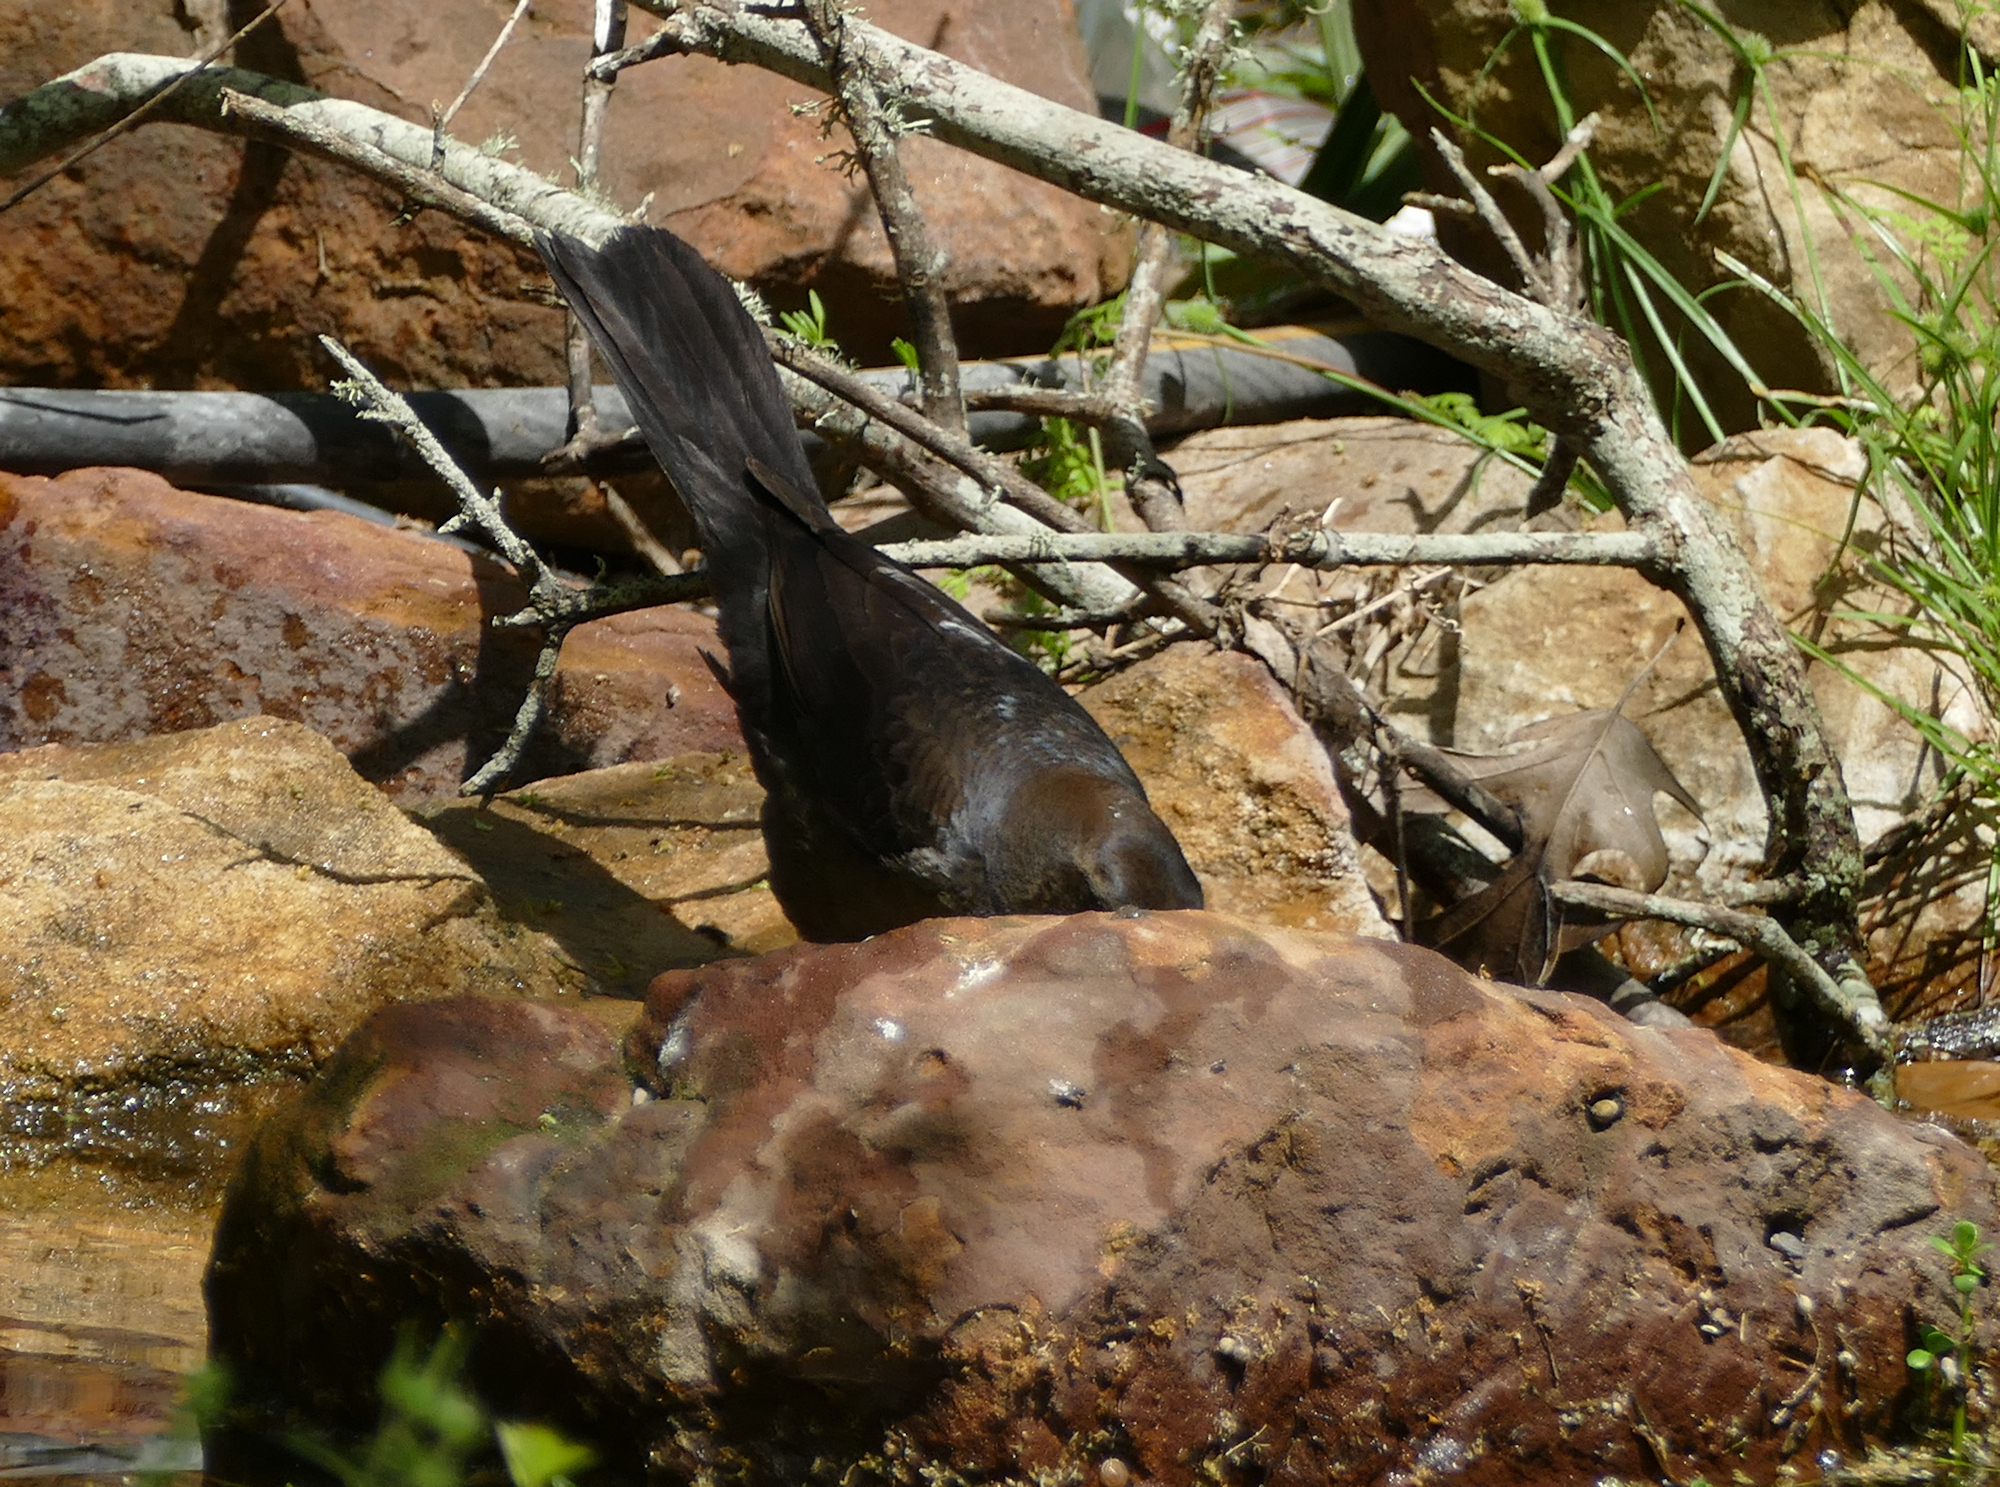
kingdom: Animalia
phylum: Chordata
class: Aves
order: Passeriformes
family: Icteridae
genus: Quiscalus
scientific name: Quiscalus mexicanus
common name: Great-tailed grackle
